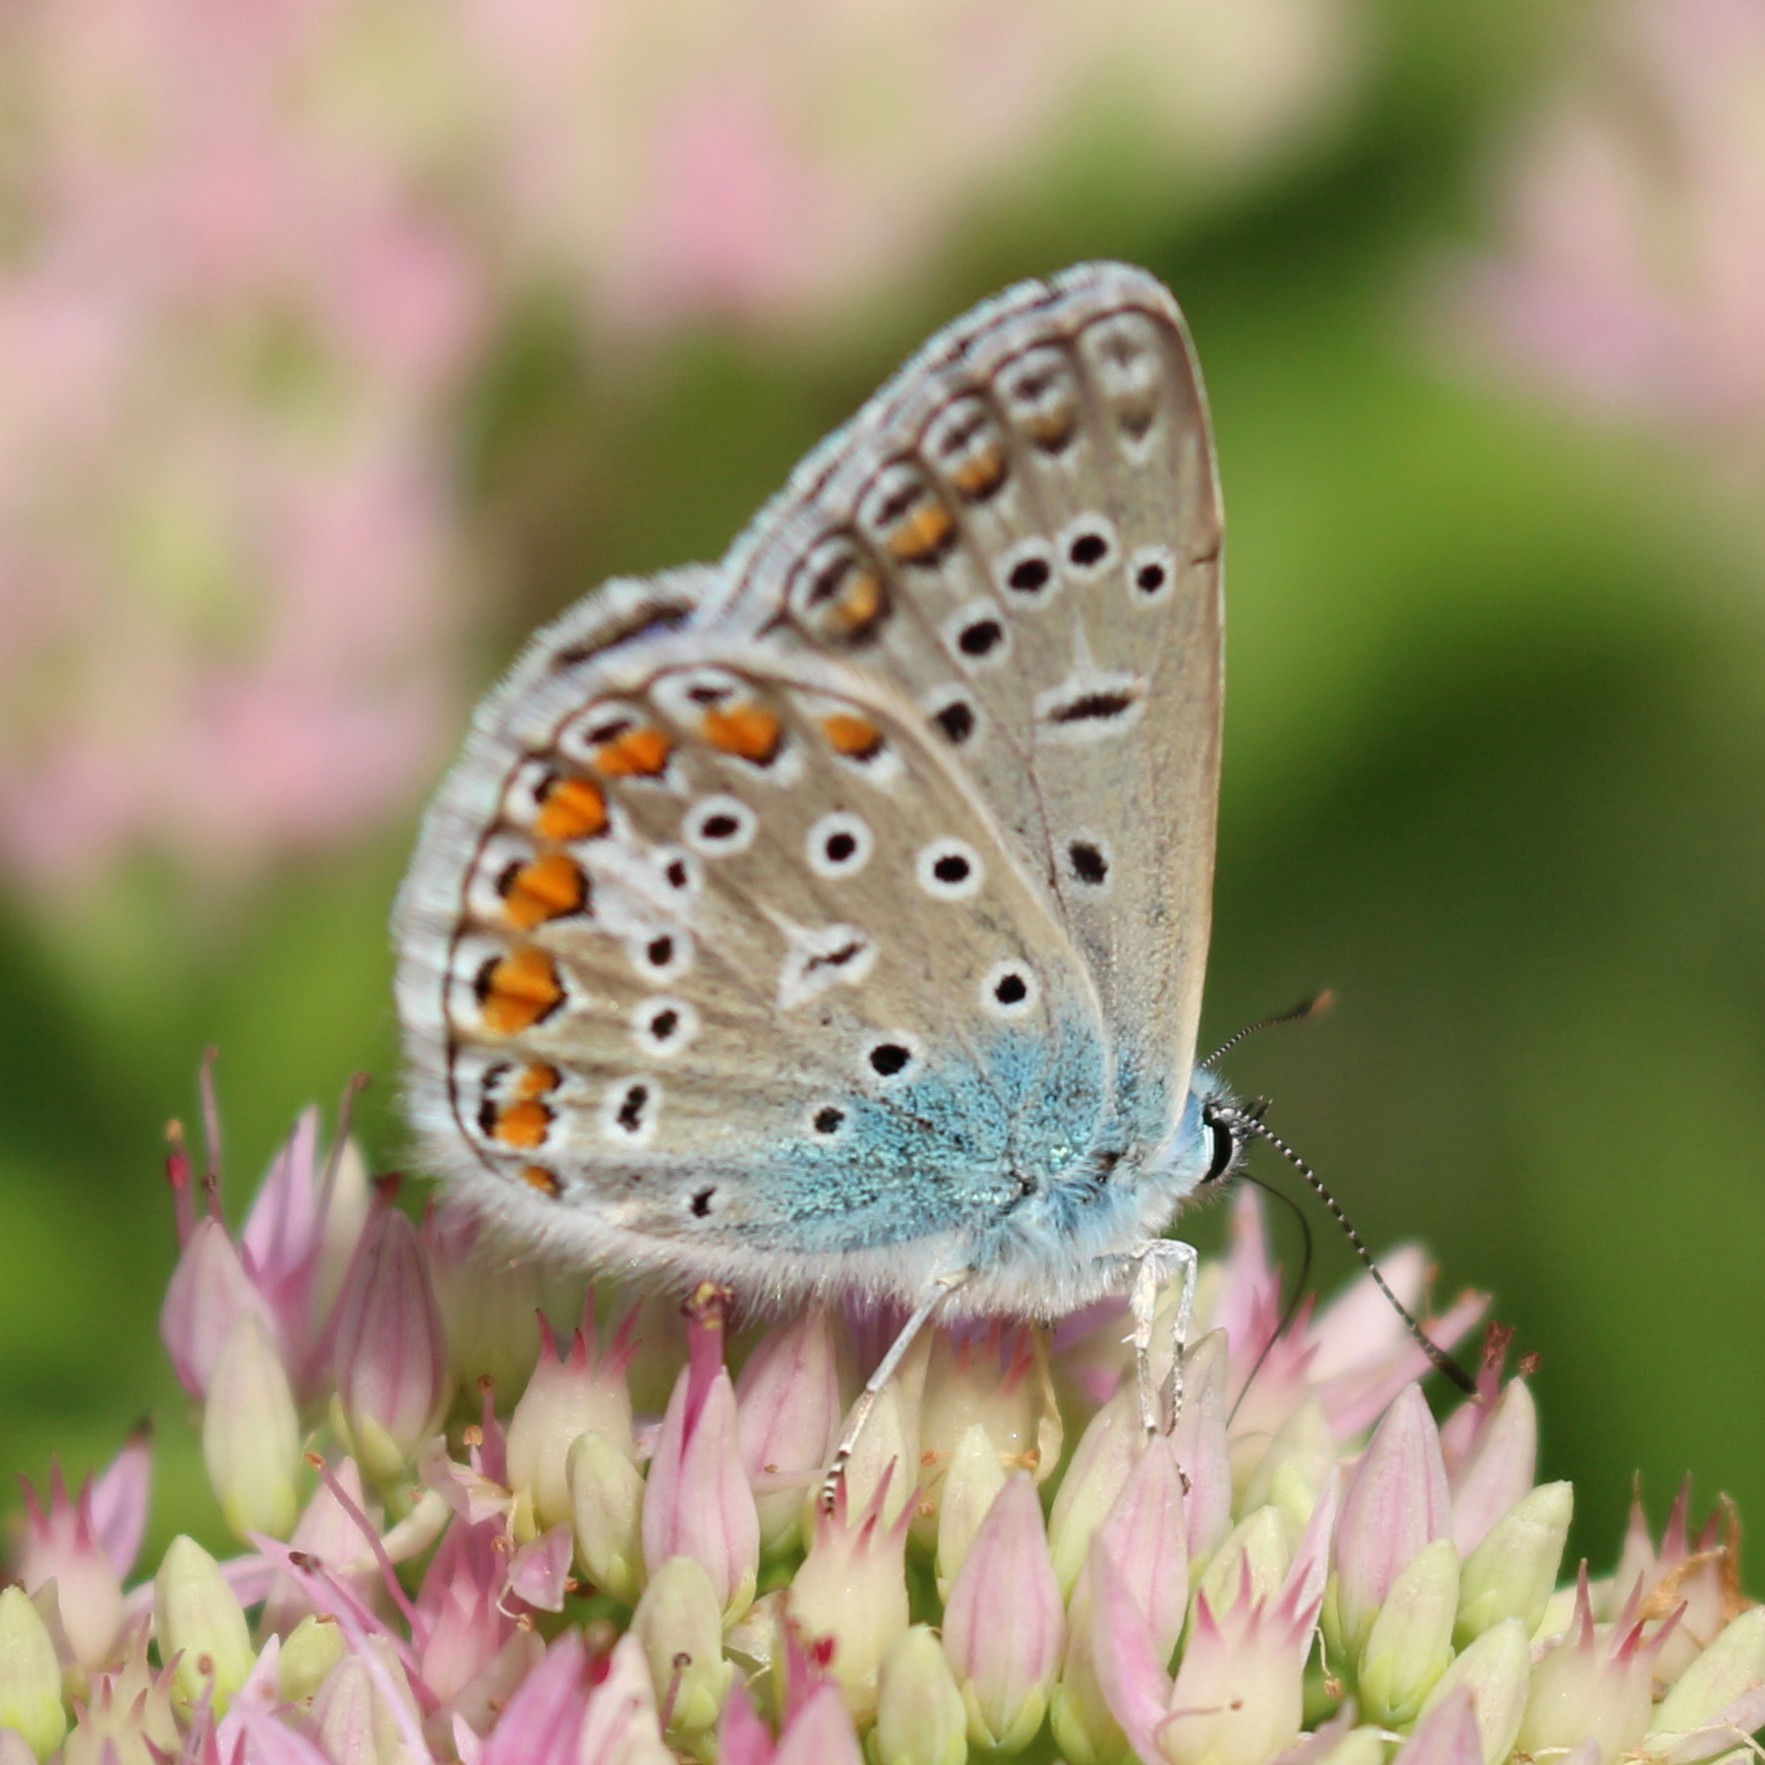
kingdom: Animalia
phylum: Arthropoda
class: Insecta
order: Lepidoptera
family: Lycaenidae
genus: Polyommatus
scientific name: Polyommatus icarus
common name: Common blue
